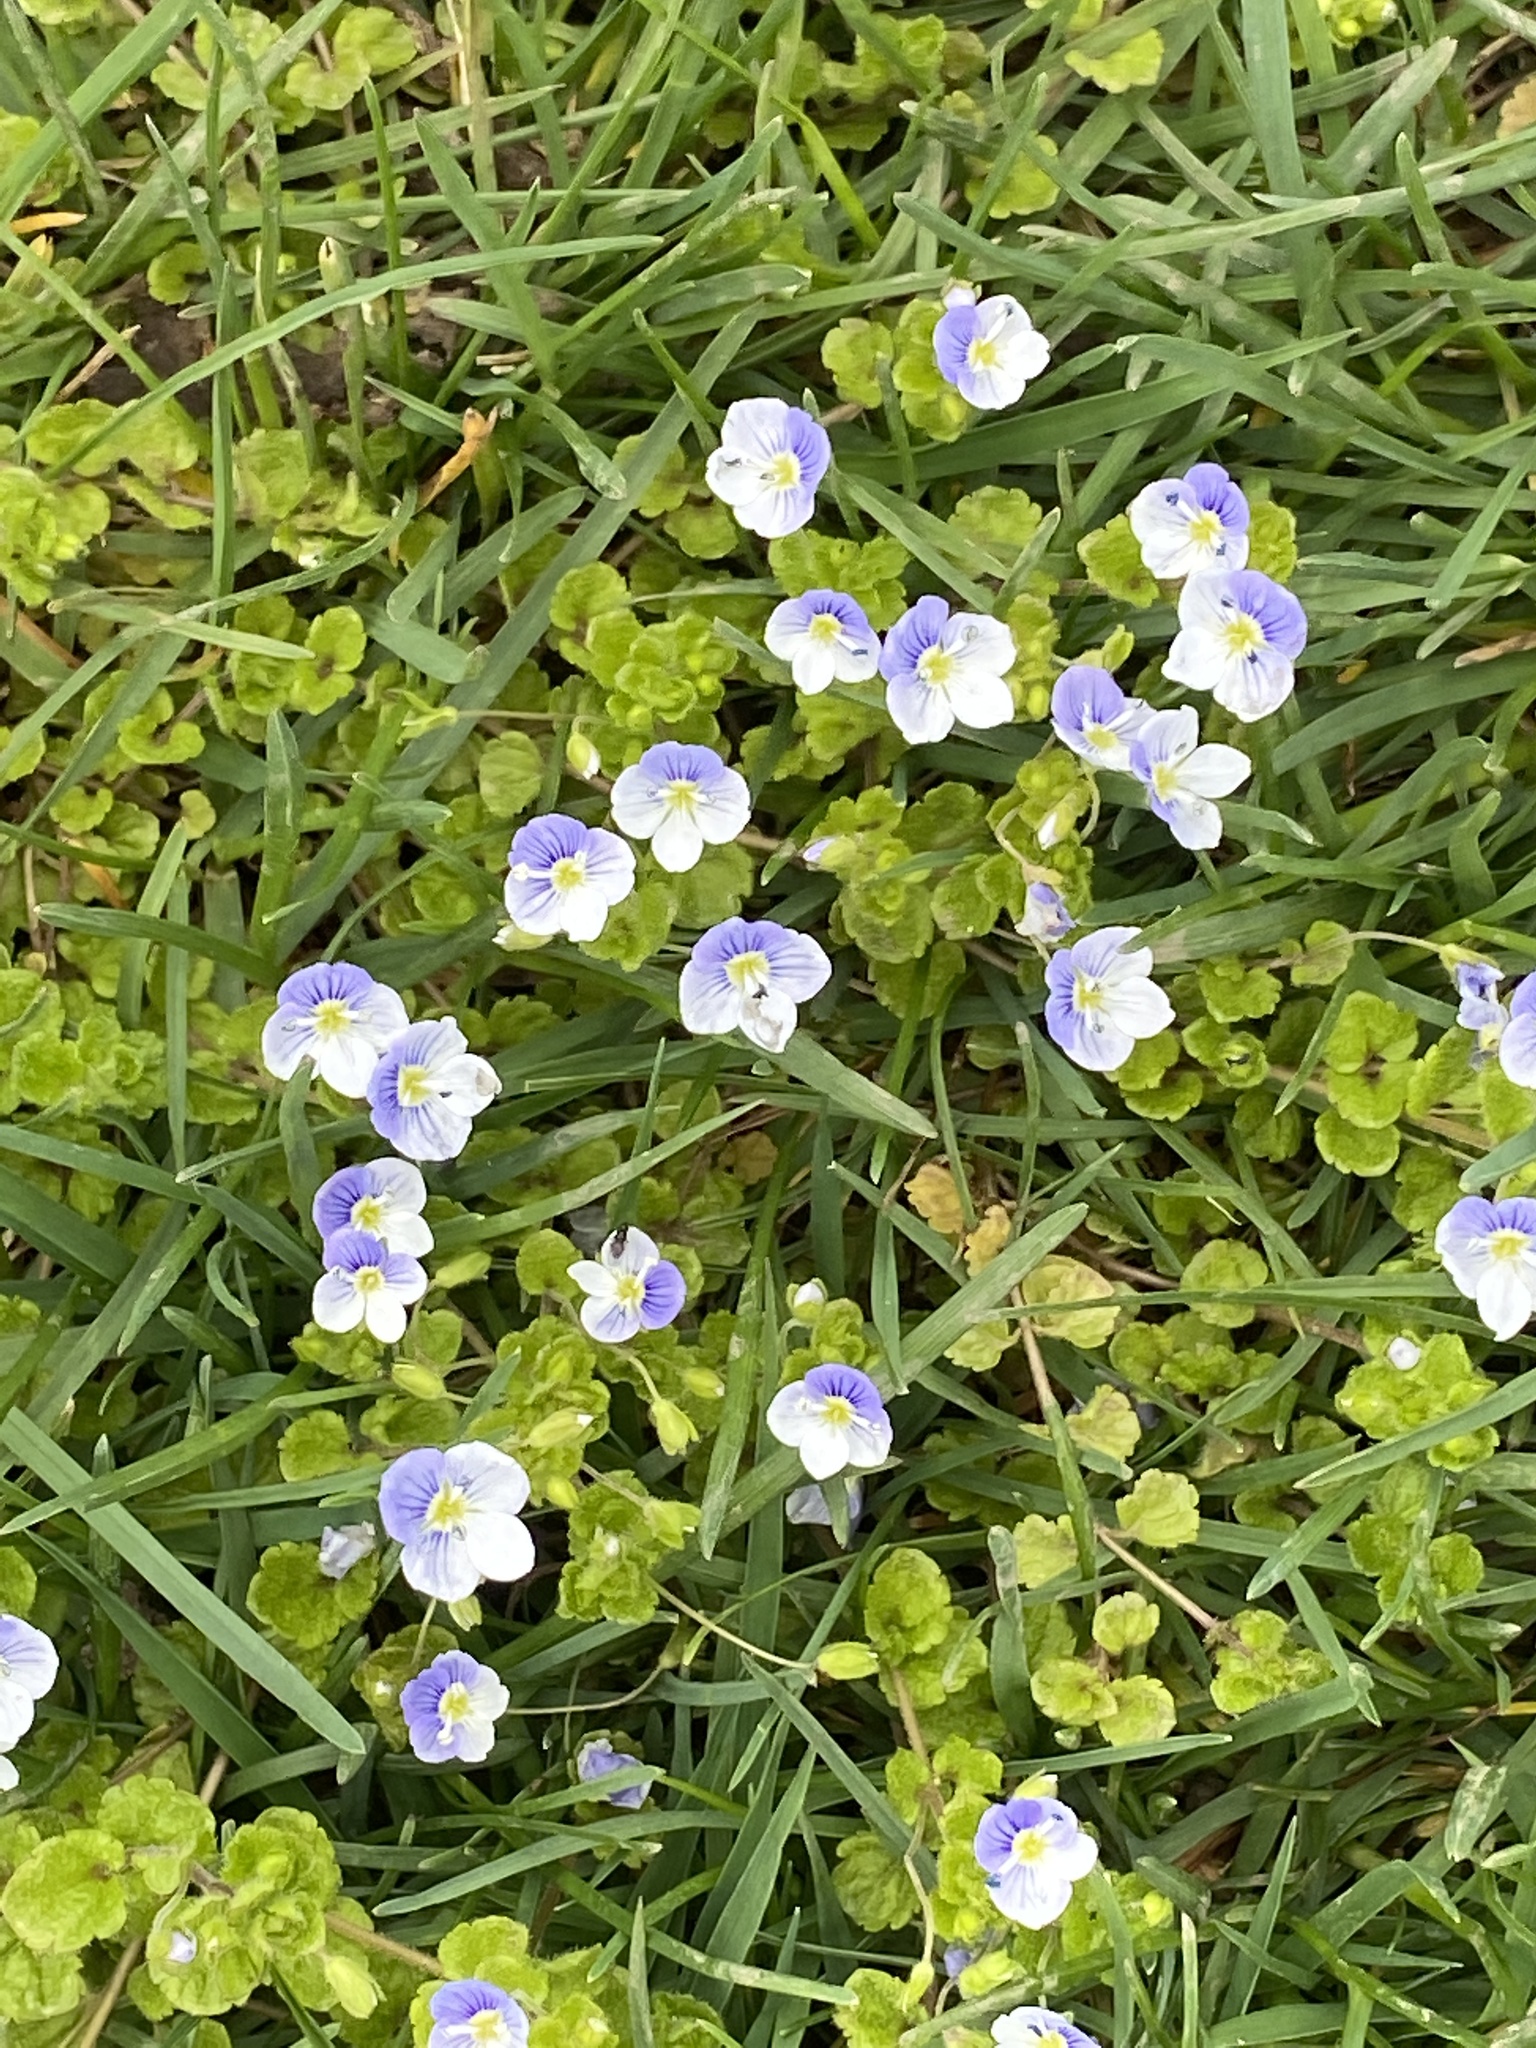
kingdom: Plantae
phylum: Tracheophyta
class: Magnoliopsida
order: Lamiales
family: Plantaginaceae
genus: Veronica
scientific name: Veronica filiformis
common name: Slender speedwell
